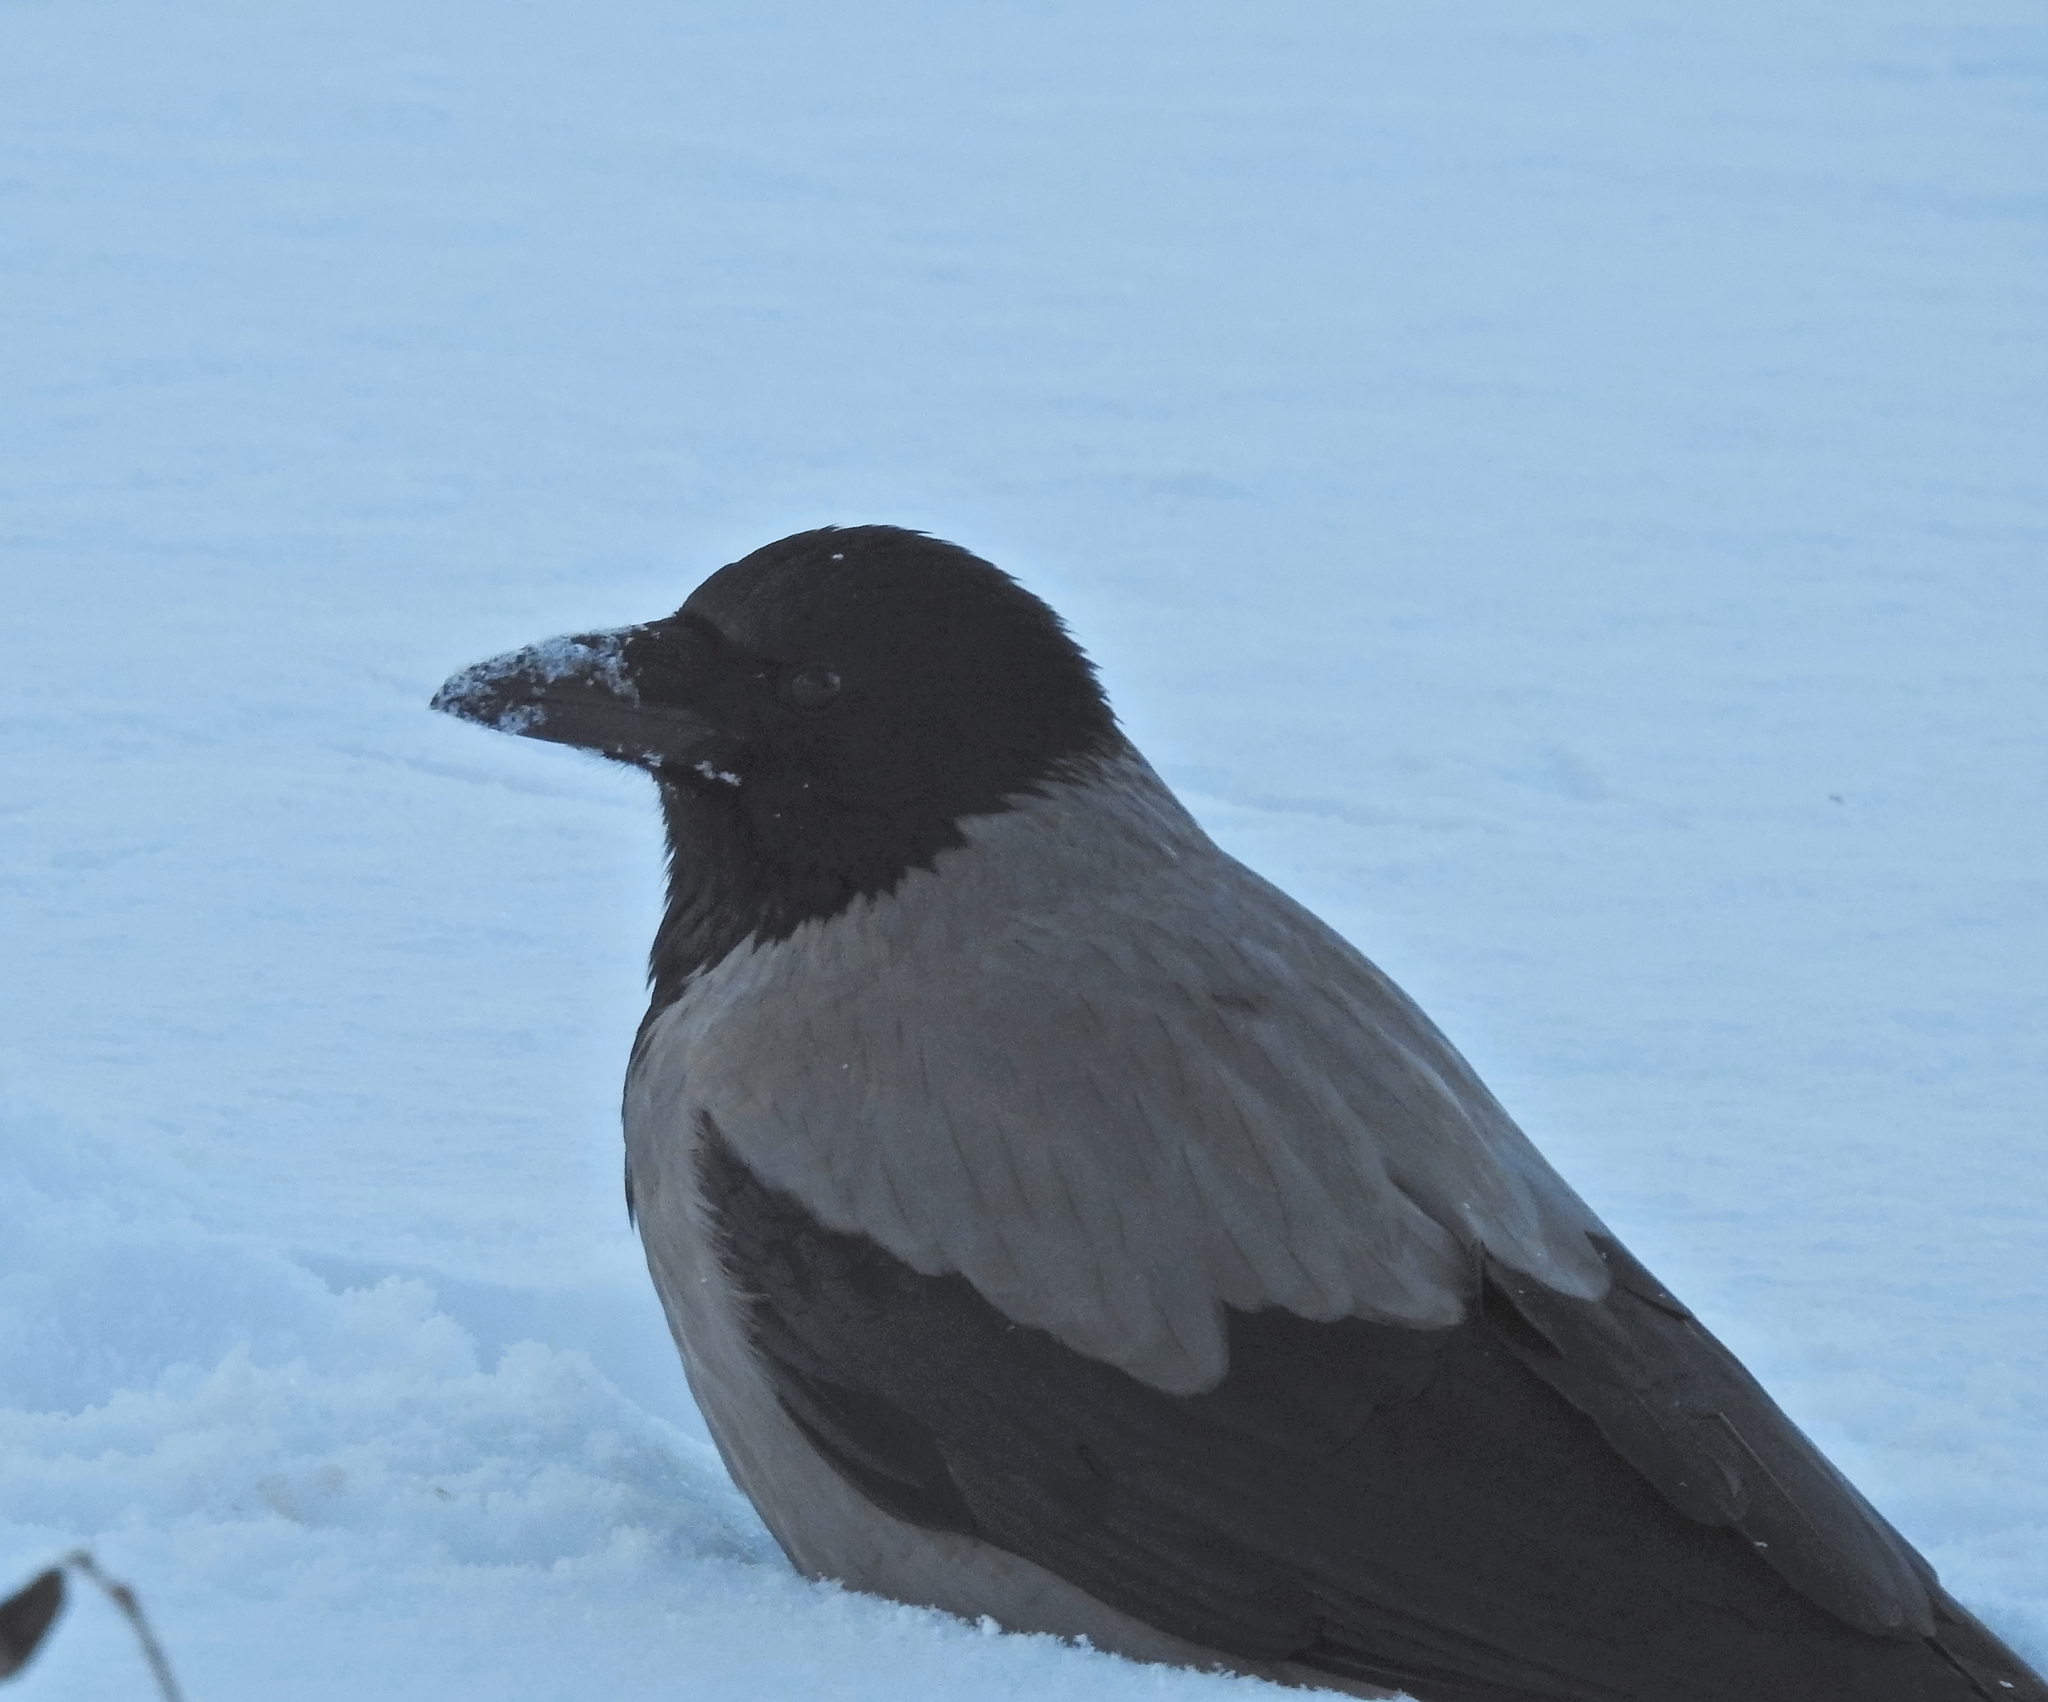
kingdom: Animalia
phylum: Chordata
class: Aves
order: Passeriformes
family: Corvidae
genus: Corvus
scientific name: Corvus cornix
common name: Hooded crow
